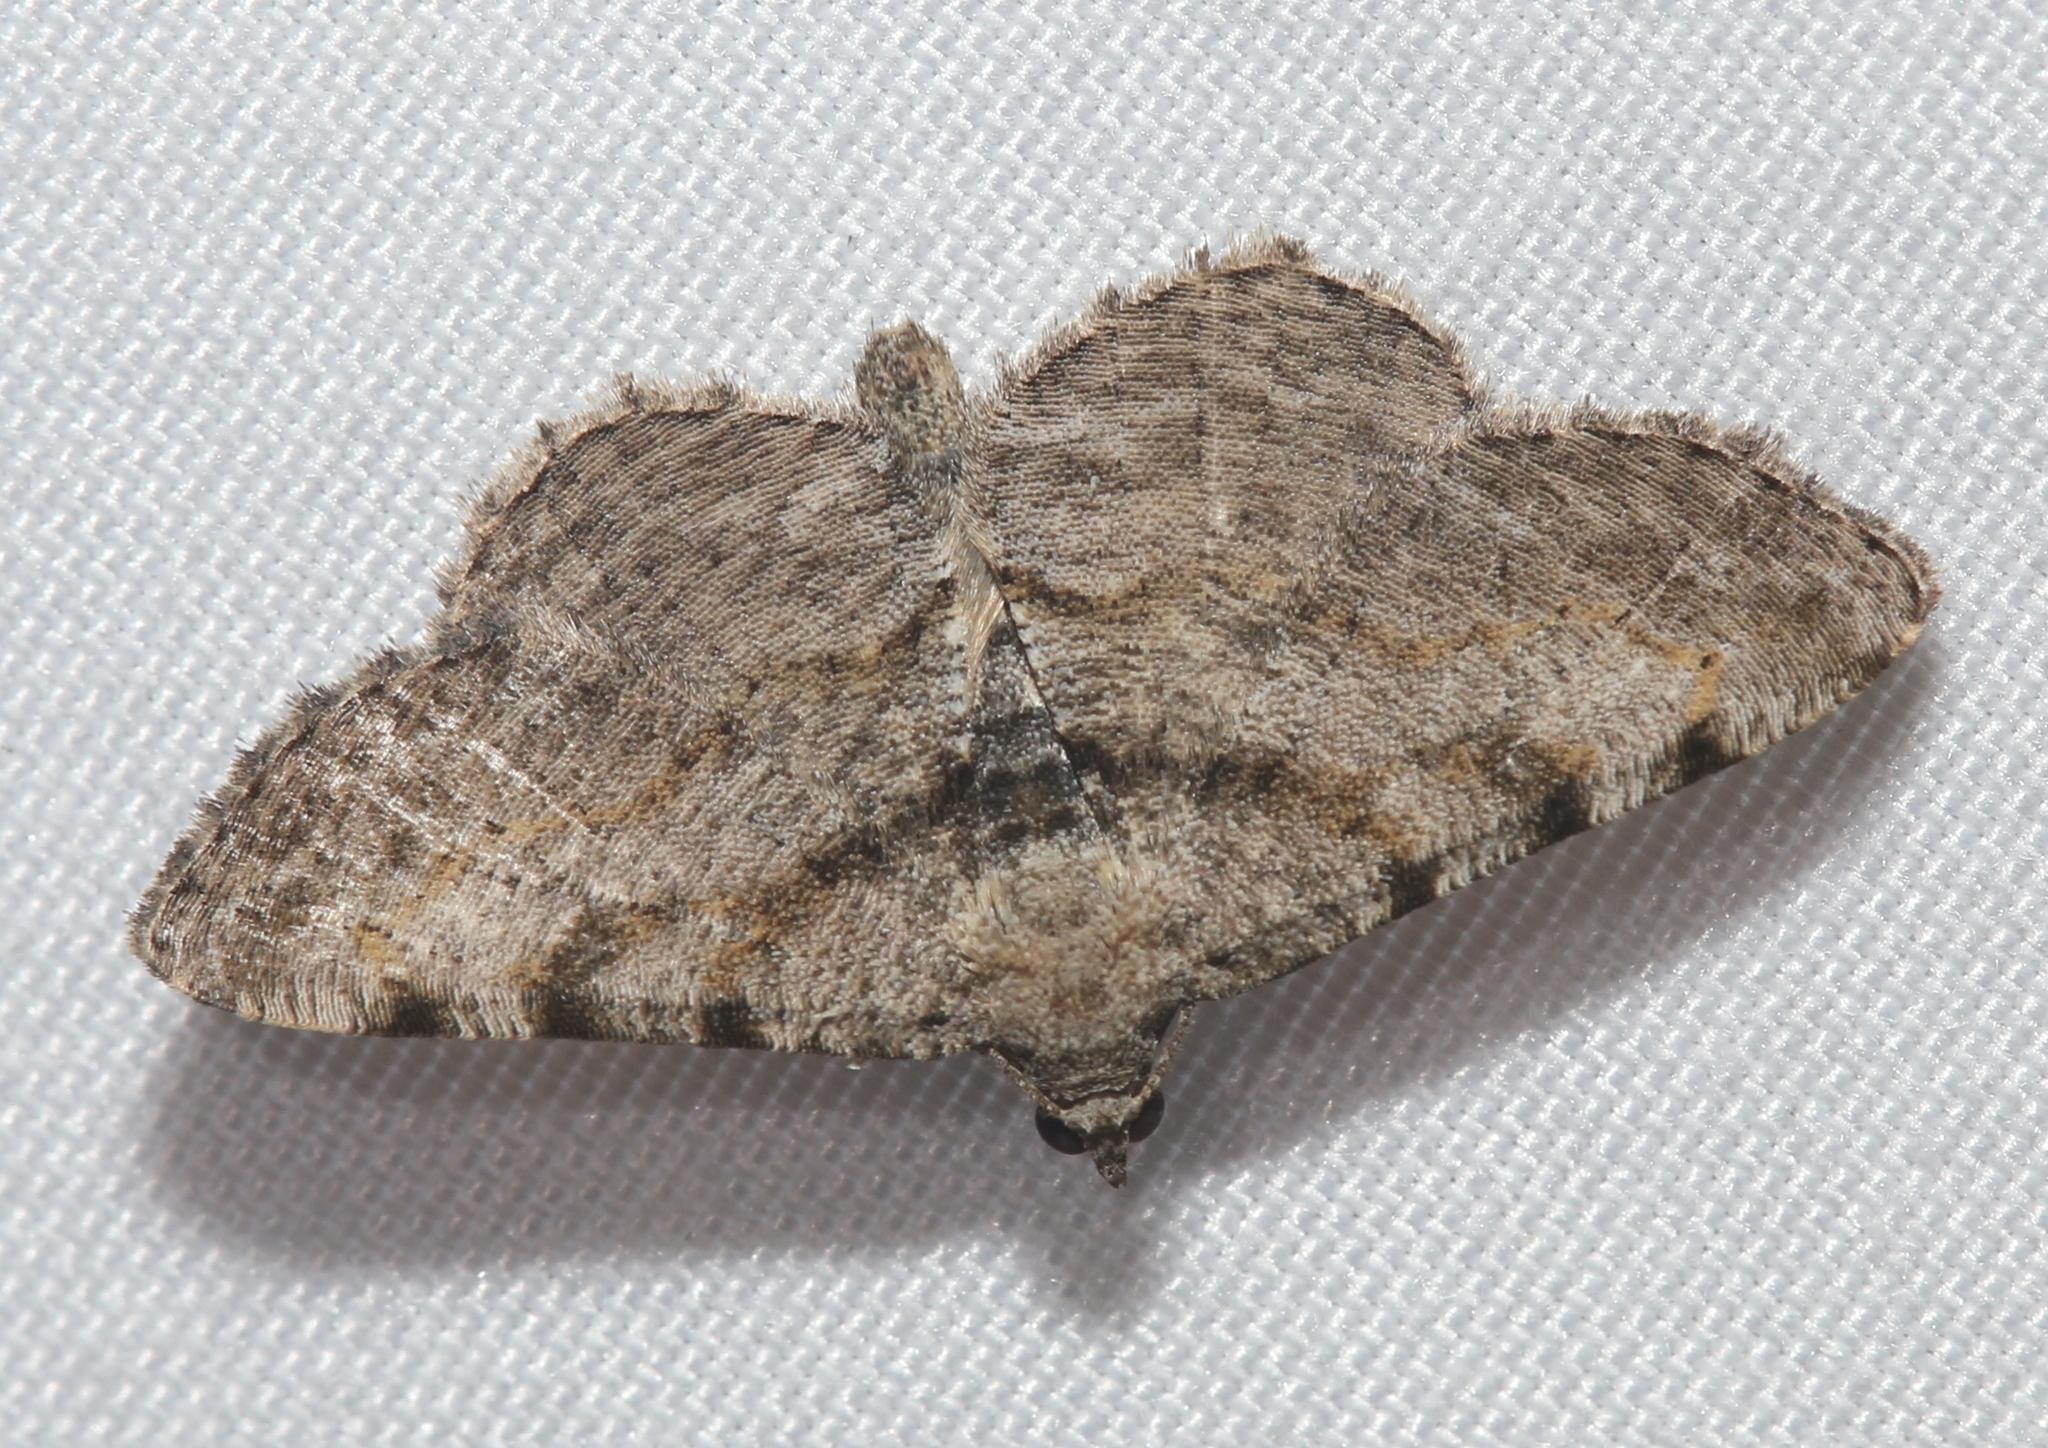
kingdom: Animalia
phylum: Arthropoda
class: Insecta
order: Lepidoptera
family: Geometridae
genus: Digrammia
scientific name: Digrammia gnophosaria
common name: Hollow-spotted angle
